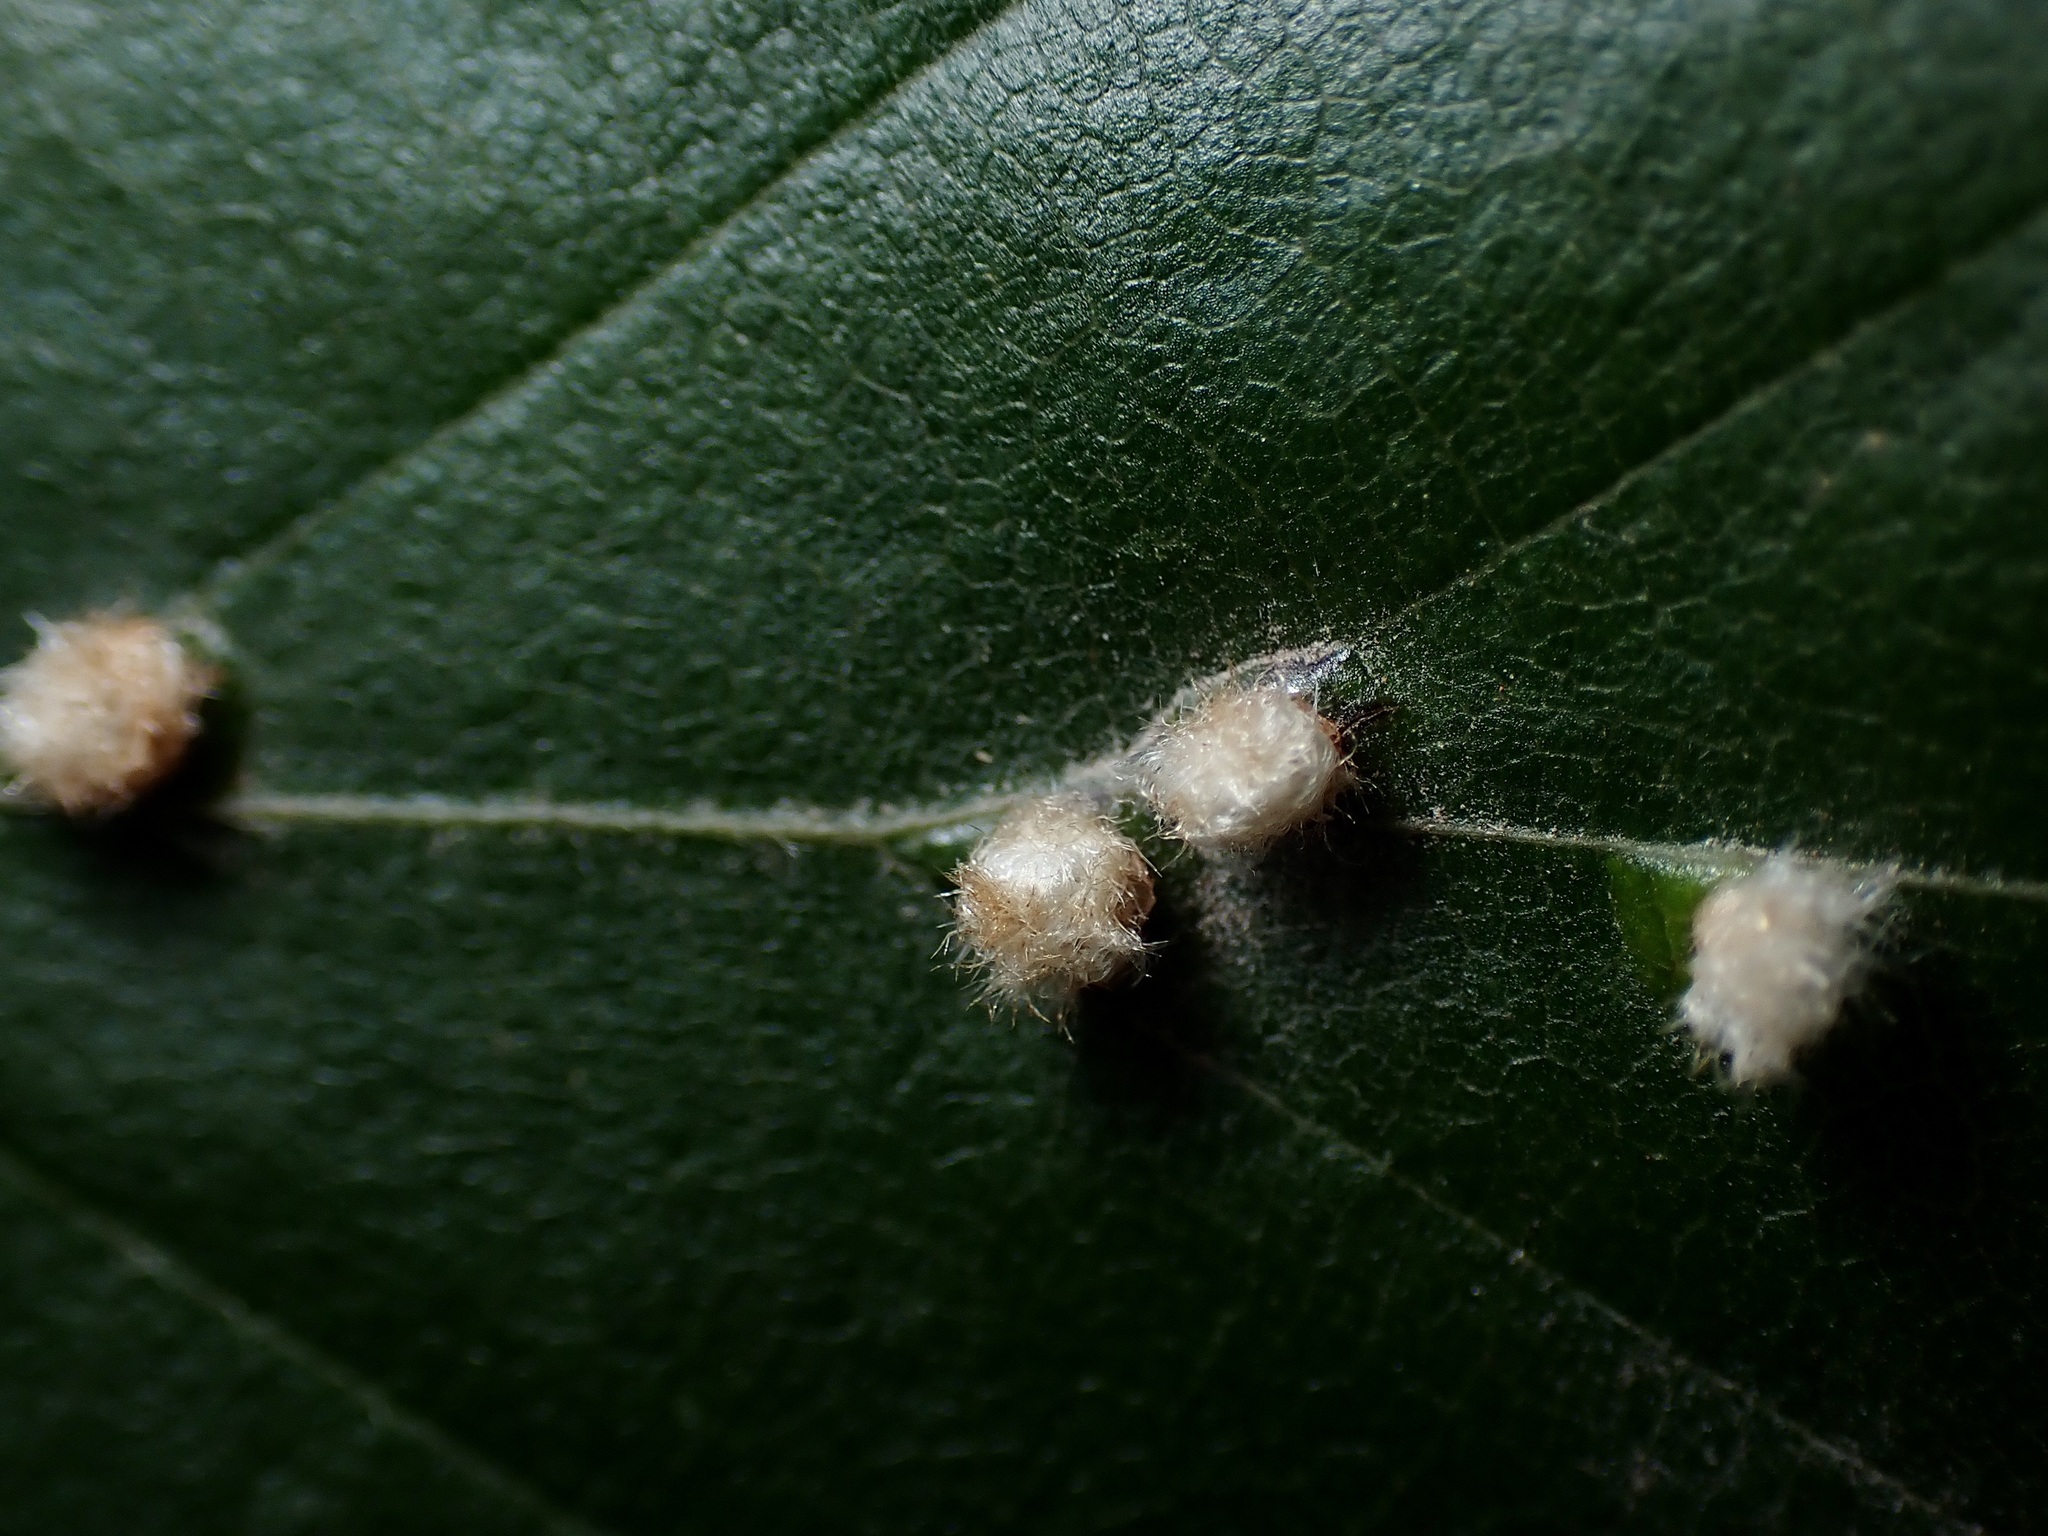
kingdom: Animalia
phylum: Arthropoda
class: Insecta
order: Diptera
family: Cecidomyiidae
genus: Hartigiola
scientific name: Hartigiola annulipes
